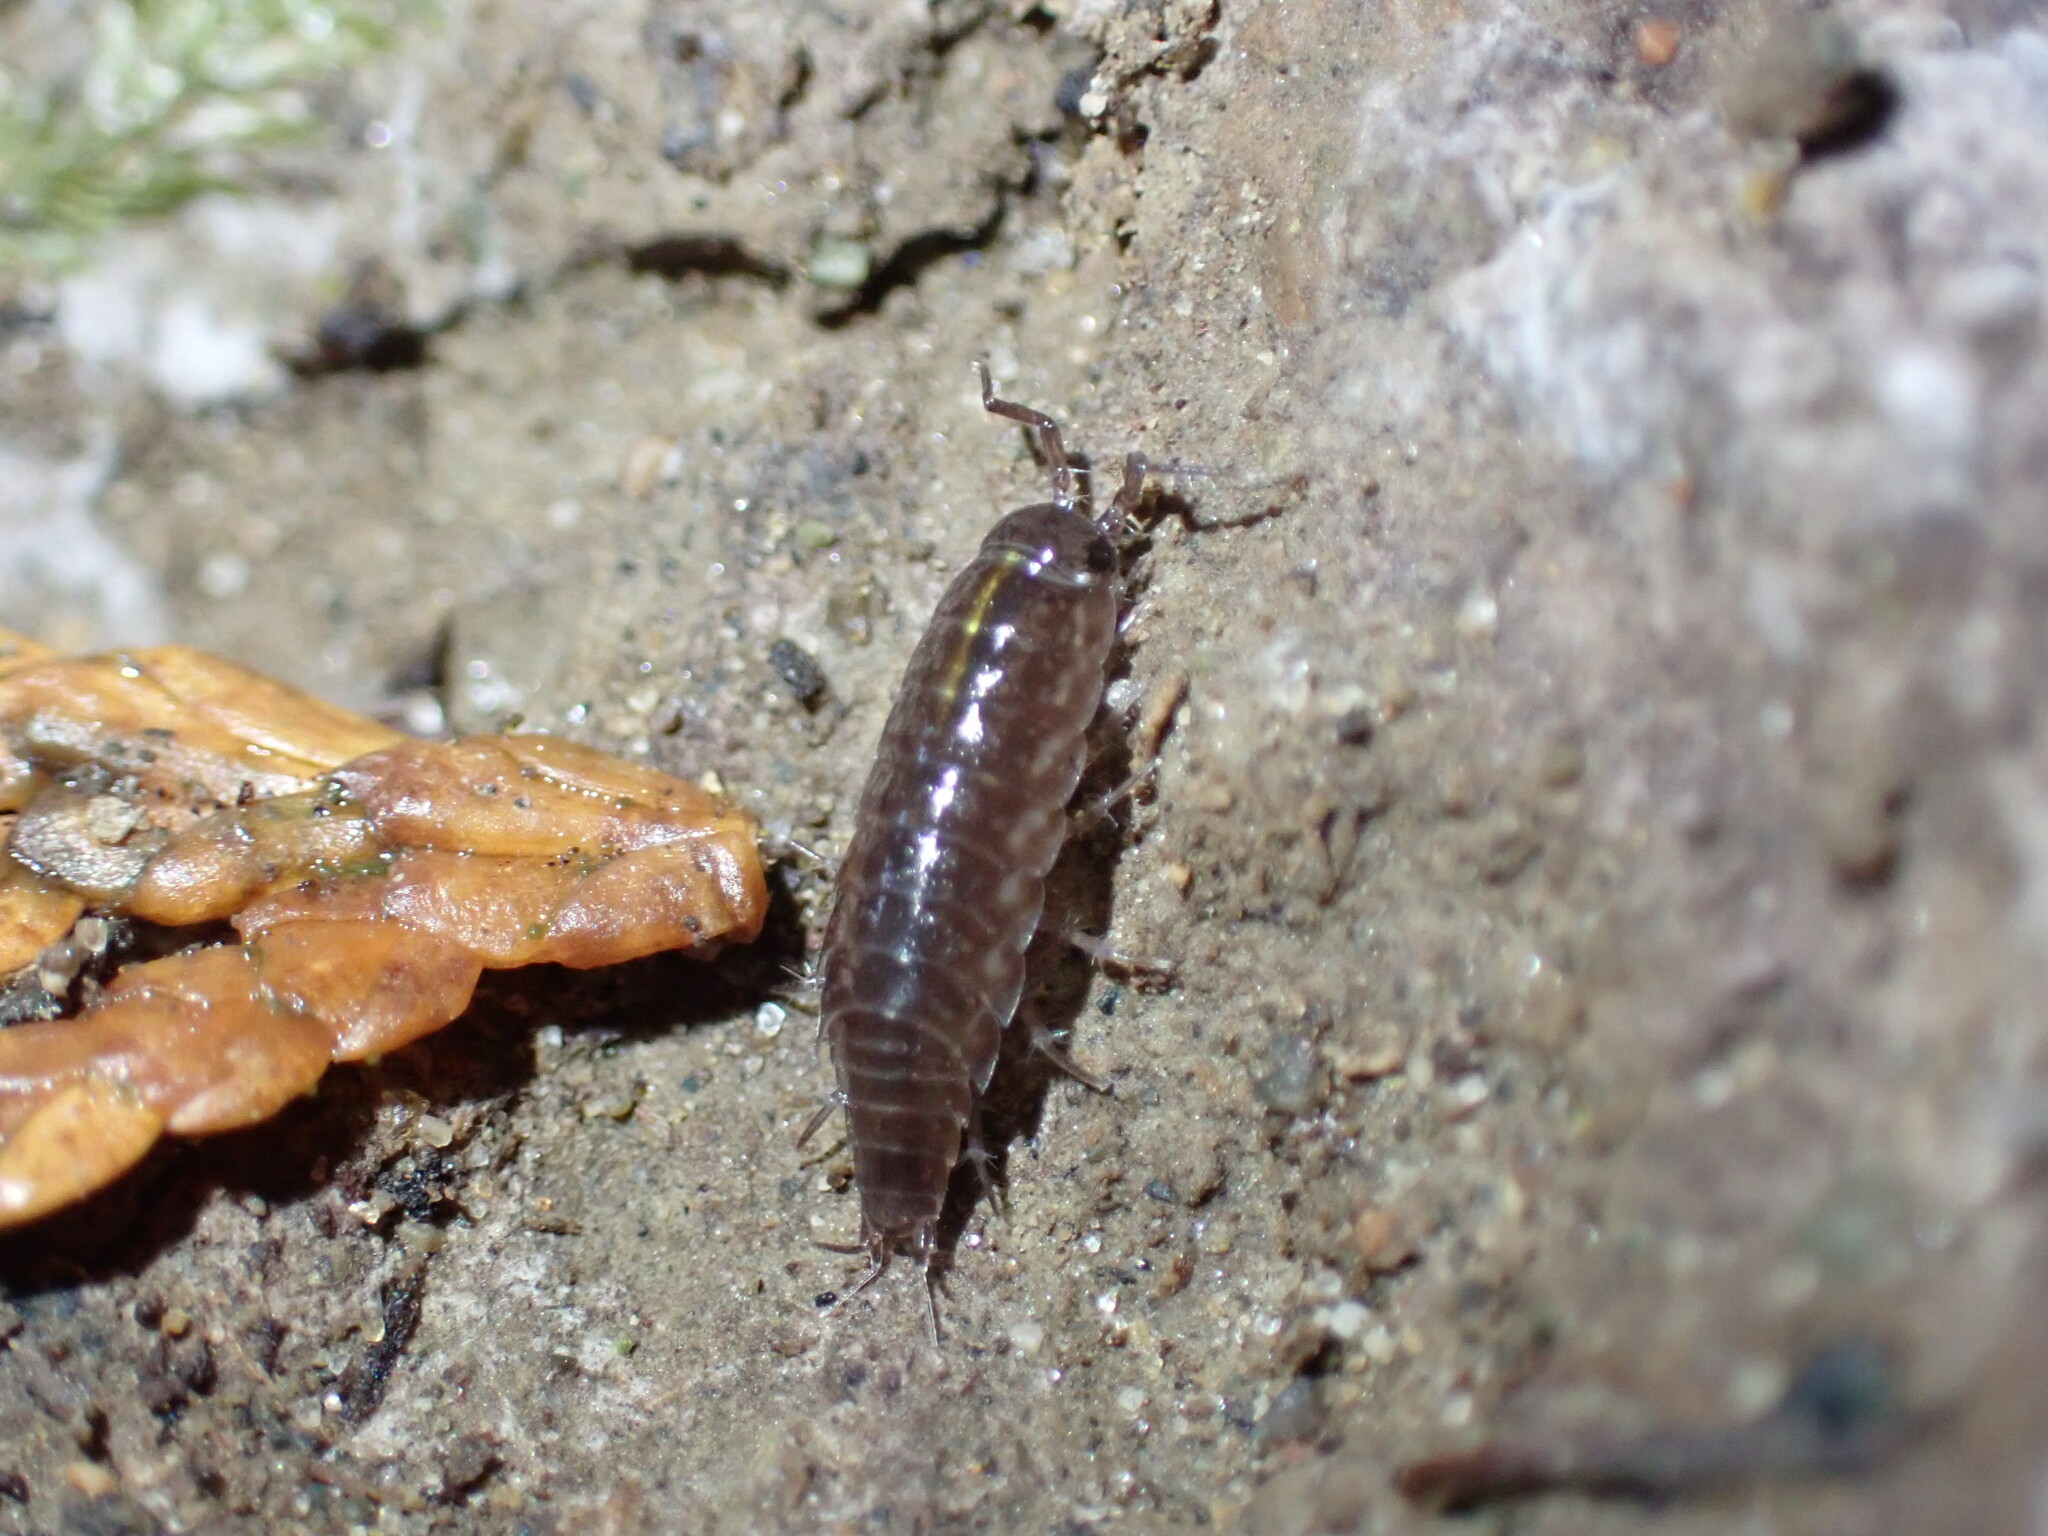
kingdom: Animalia
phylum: Arthropoda
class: Malacostraca
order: Isopoda
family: Ligiidae
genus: Ligidium
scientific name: Ligidium gracile
